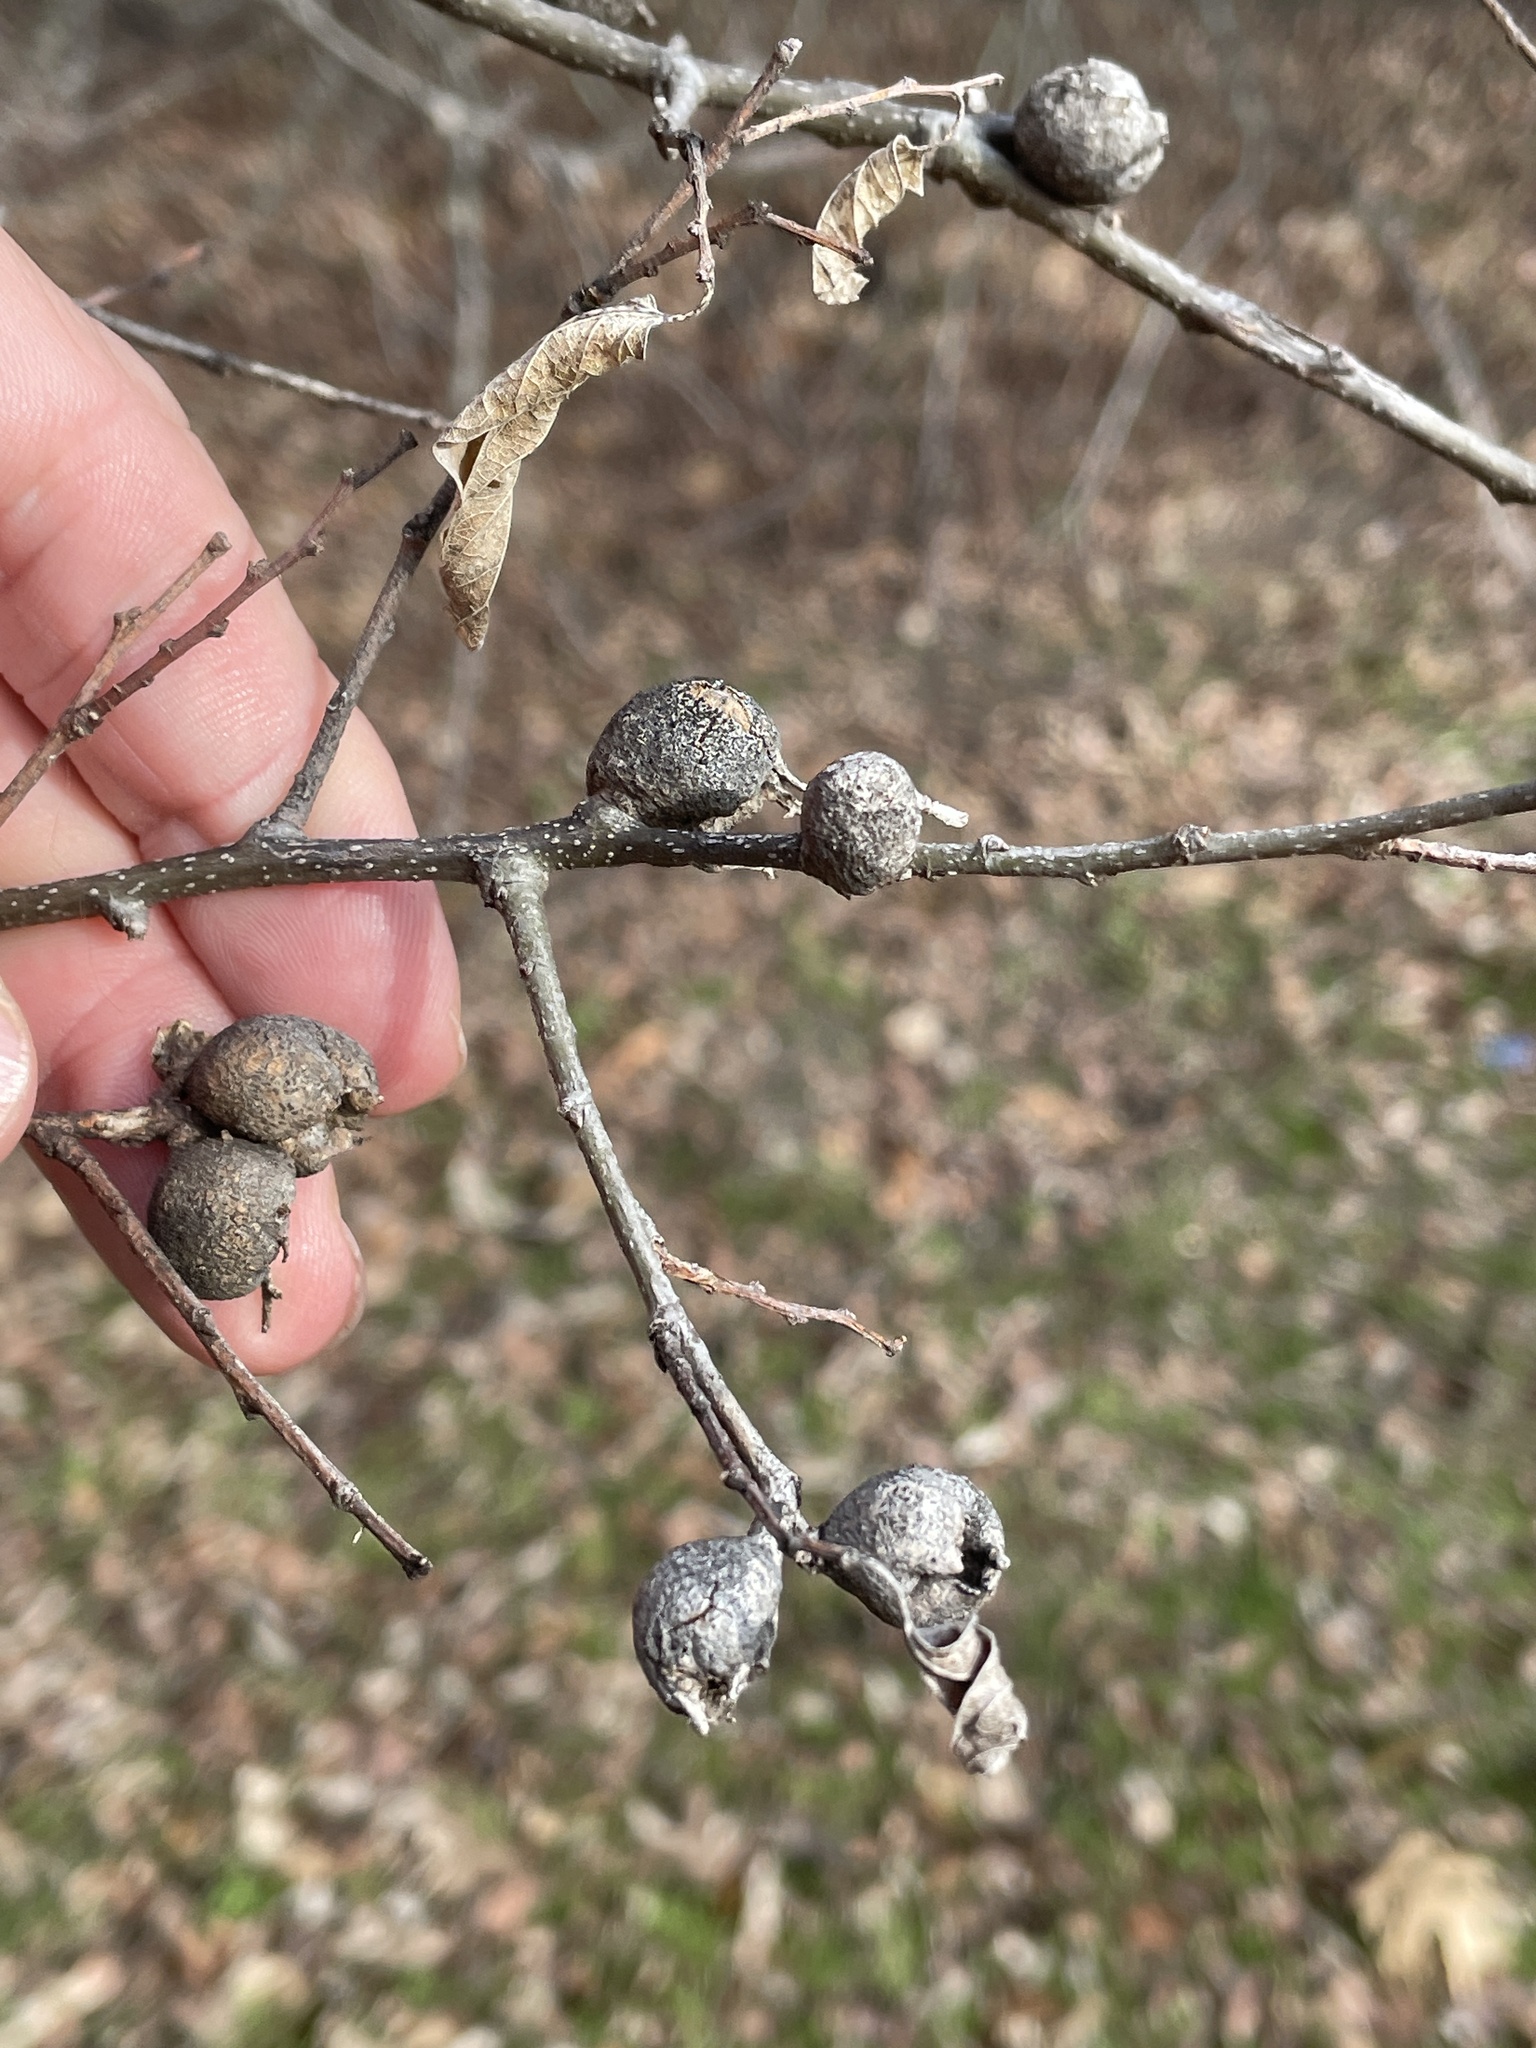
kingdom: Animalia
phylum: Arthropoda
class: Insecta
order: Hemiptera
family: Aphalaridae
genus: Pachypsylla
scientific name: Pachypsylla venusta
